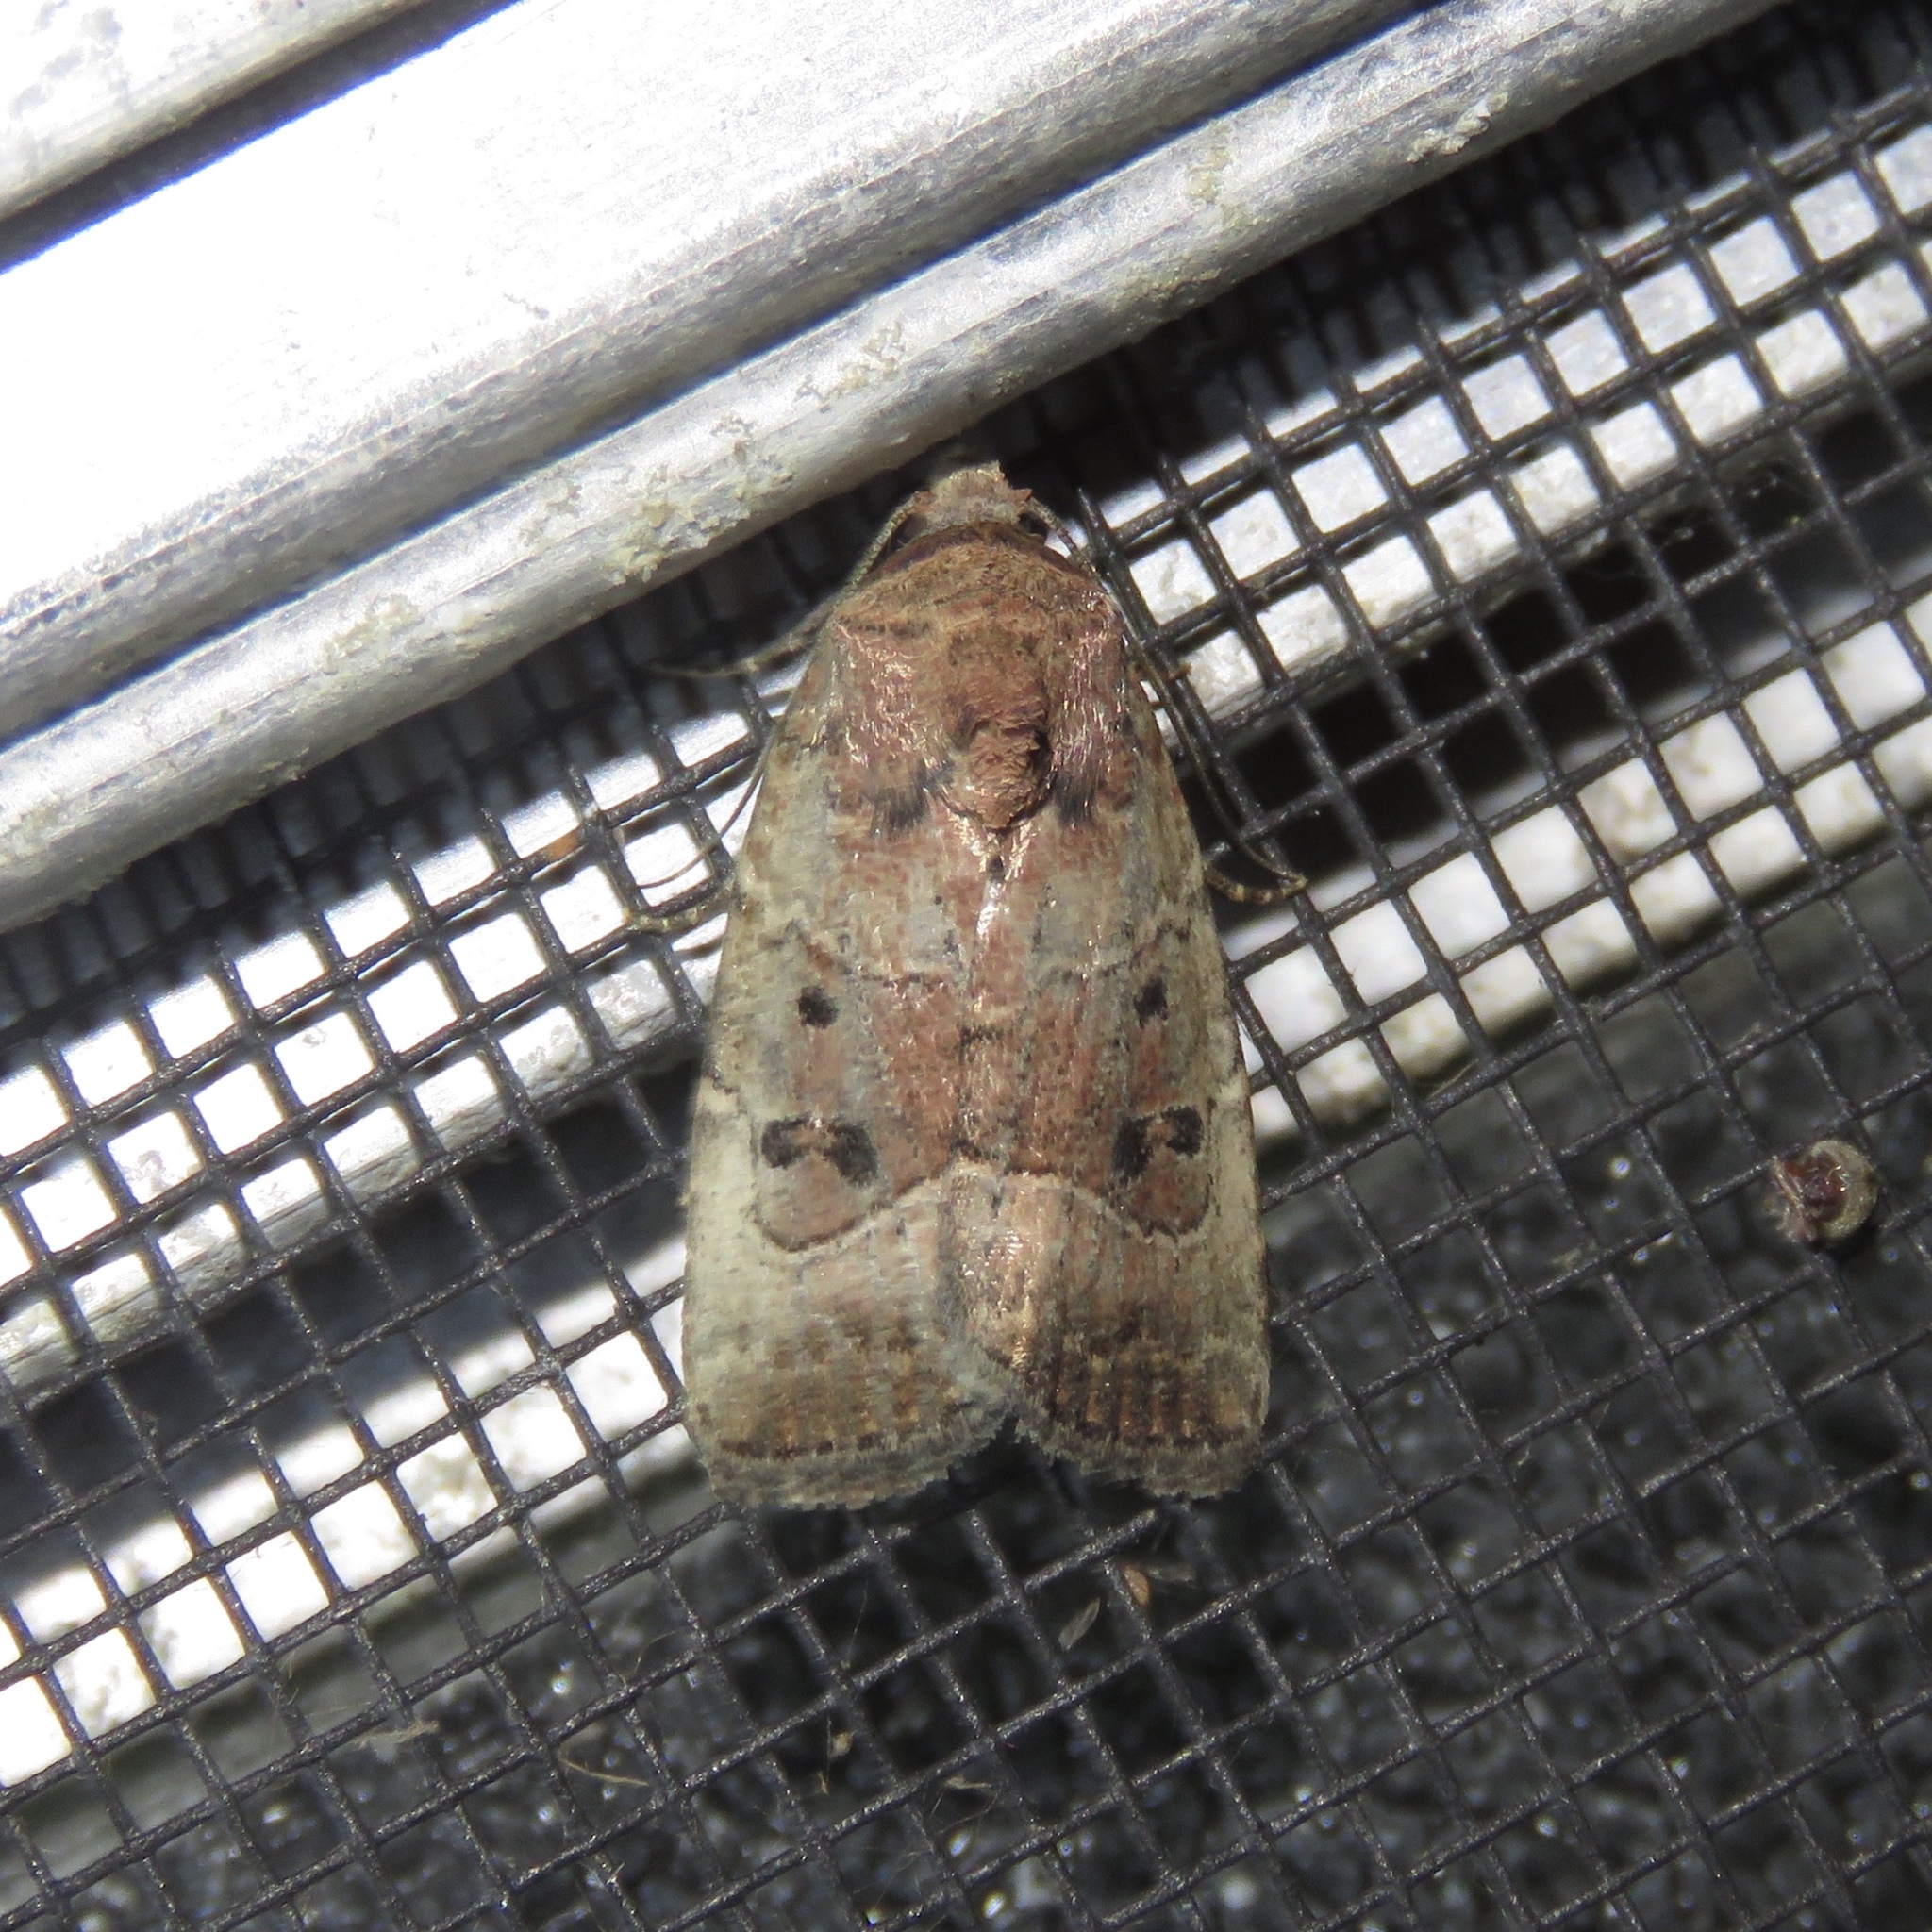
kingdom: Animalia
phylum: Arthropoda
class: Insecta
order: Lepidoptera
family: Noctuidae
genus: Elaphria
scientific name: Elaphria fuscimacula
